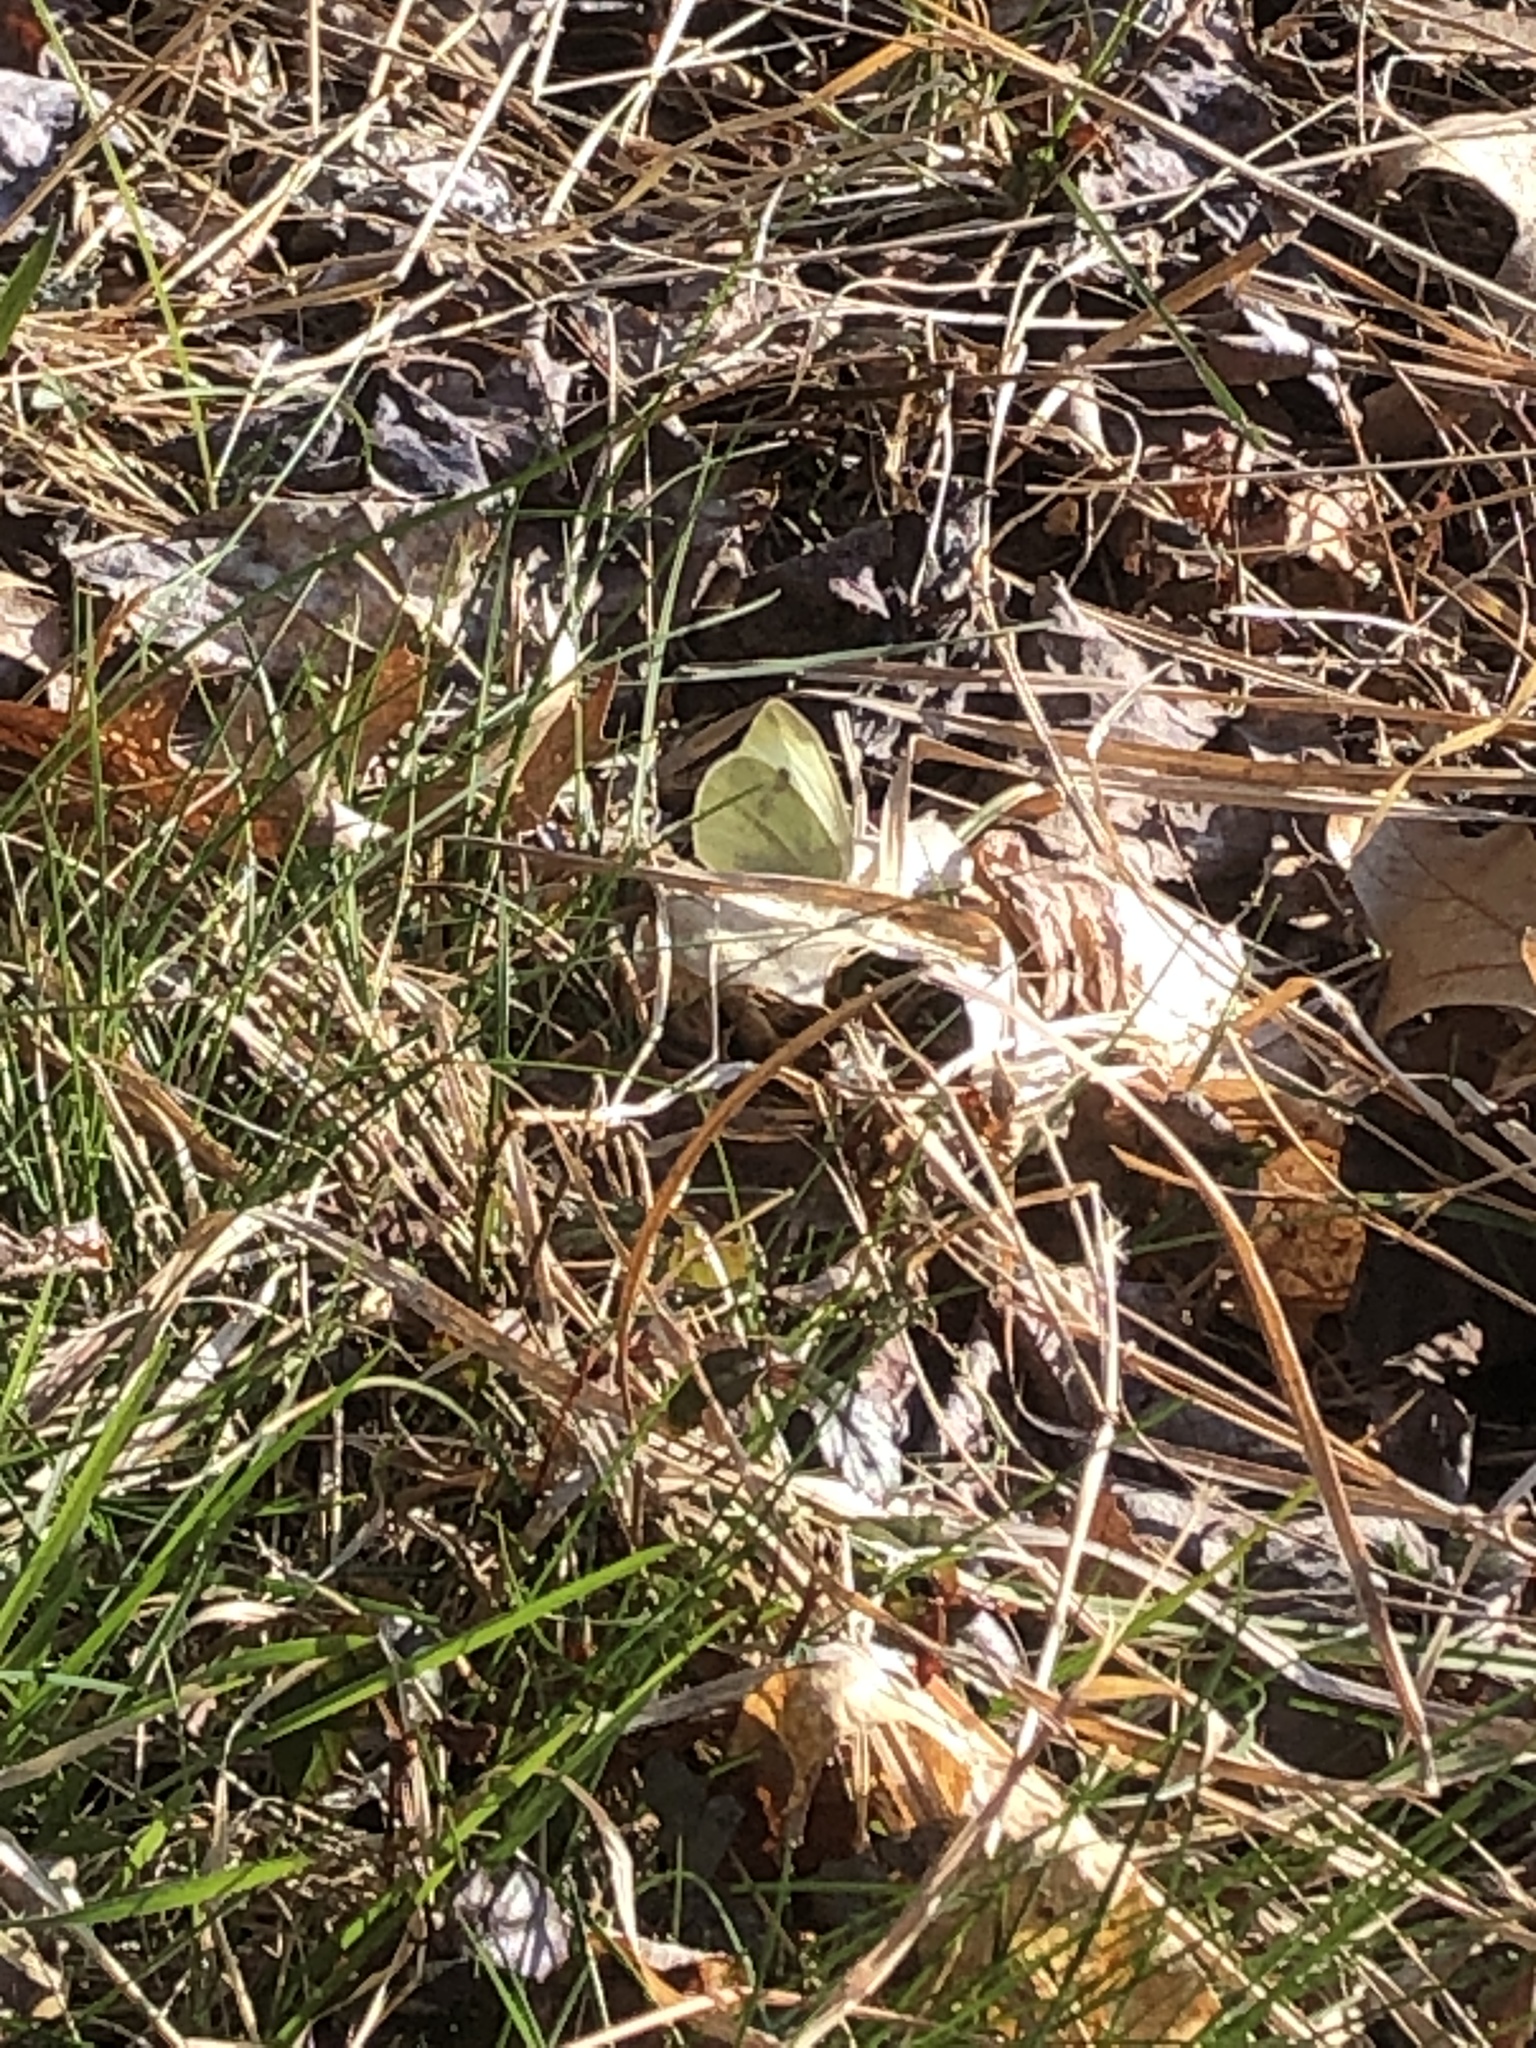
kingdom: Animalia
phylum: Arthropoda
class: Insecta
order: Lepidoptera
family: Pieridae
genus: Pieris
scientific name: Pieris rapae
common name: Small white
